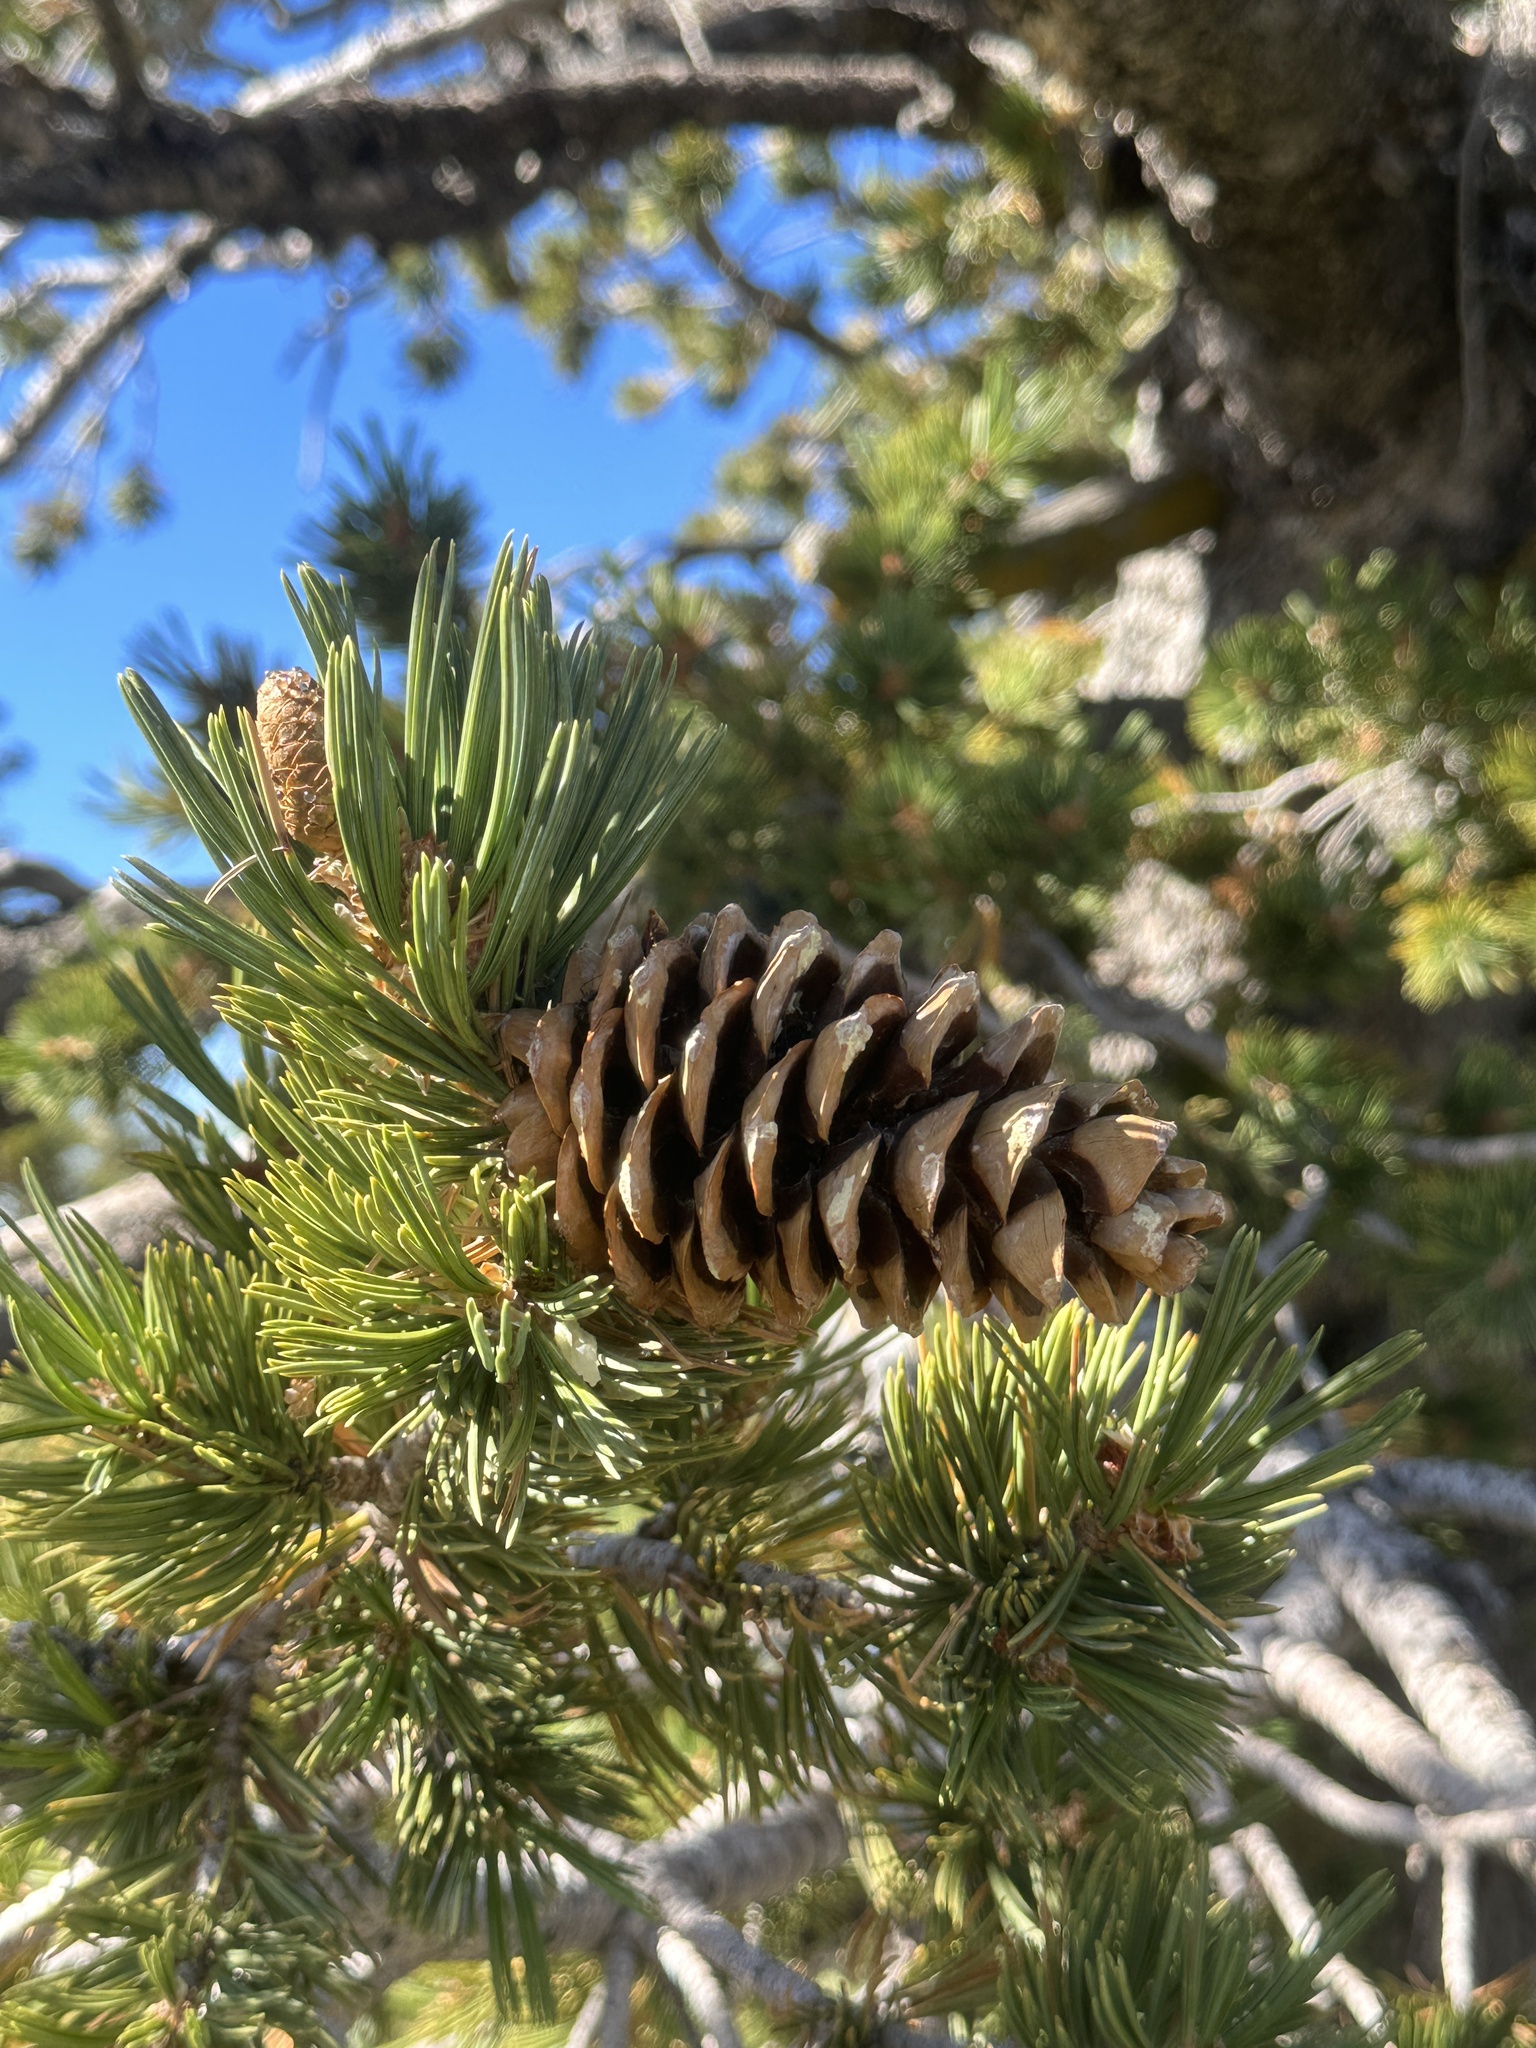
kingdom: Plantae
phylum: Tracheophyta
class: Pinopsida
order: Pinales
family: Pinaceae
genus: Pinus
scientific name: Pinus flexilis
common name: Limber pine
